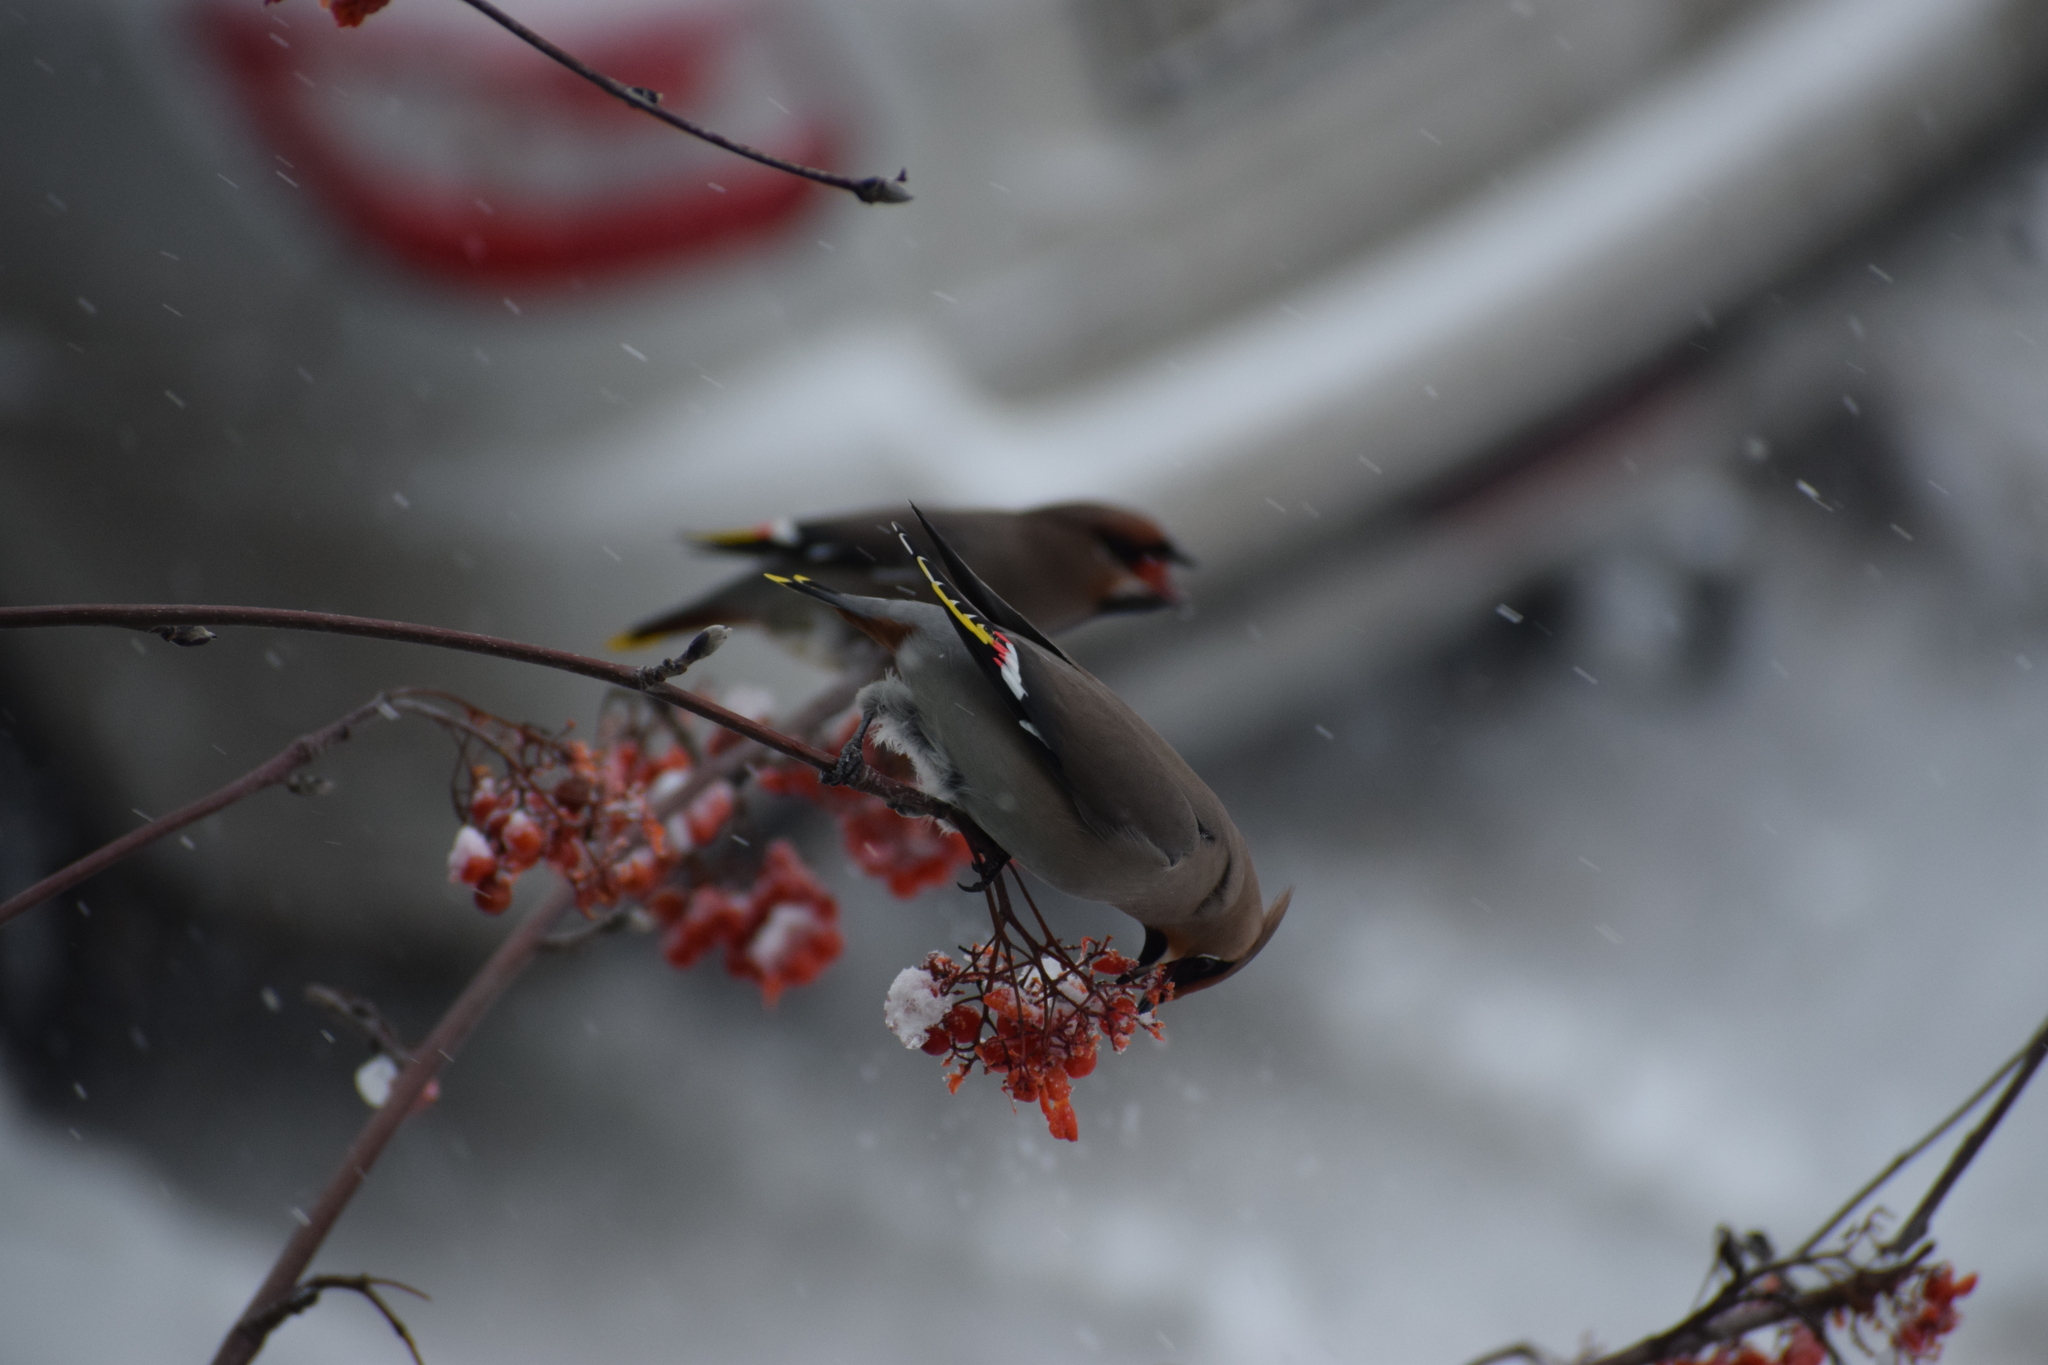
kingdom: Animalia
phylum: Chordata
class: Aves
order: Passeriformes
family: Bombycillidae
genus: Bombycilla
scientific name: Bombycilla garrulus
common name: Bohemian waxwing
